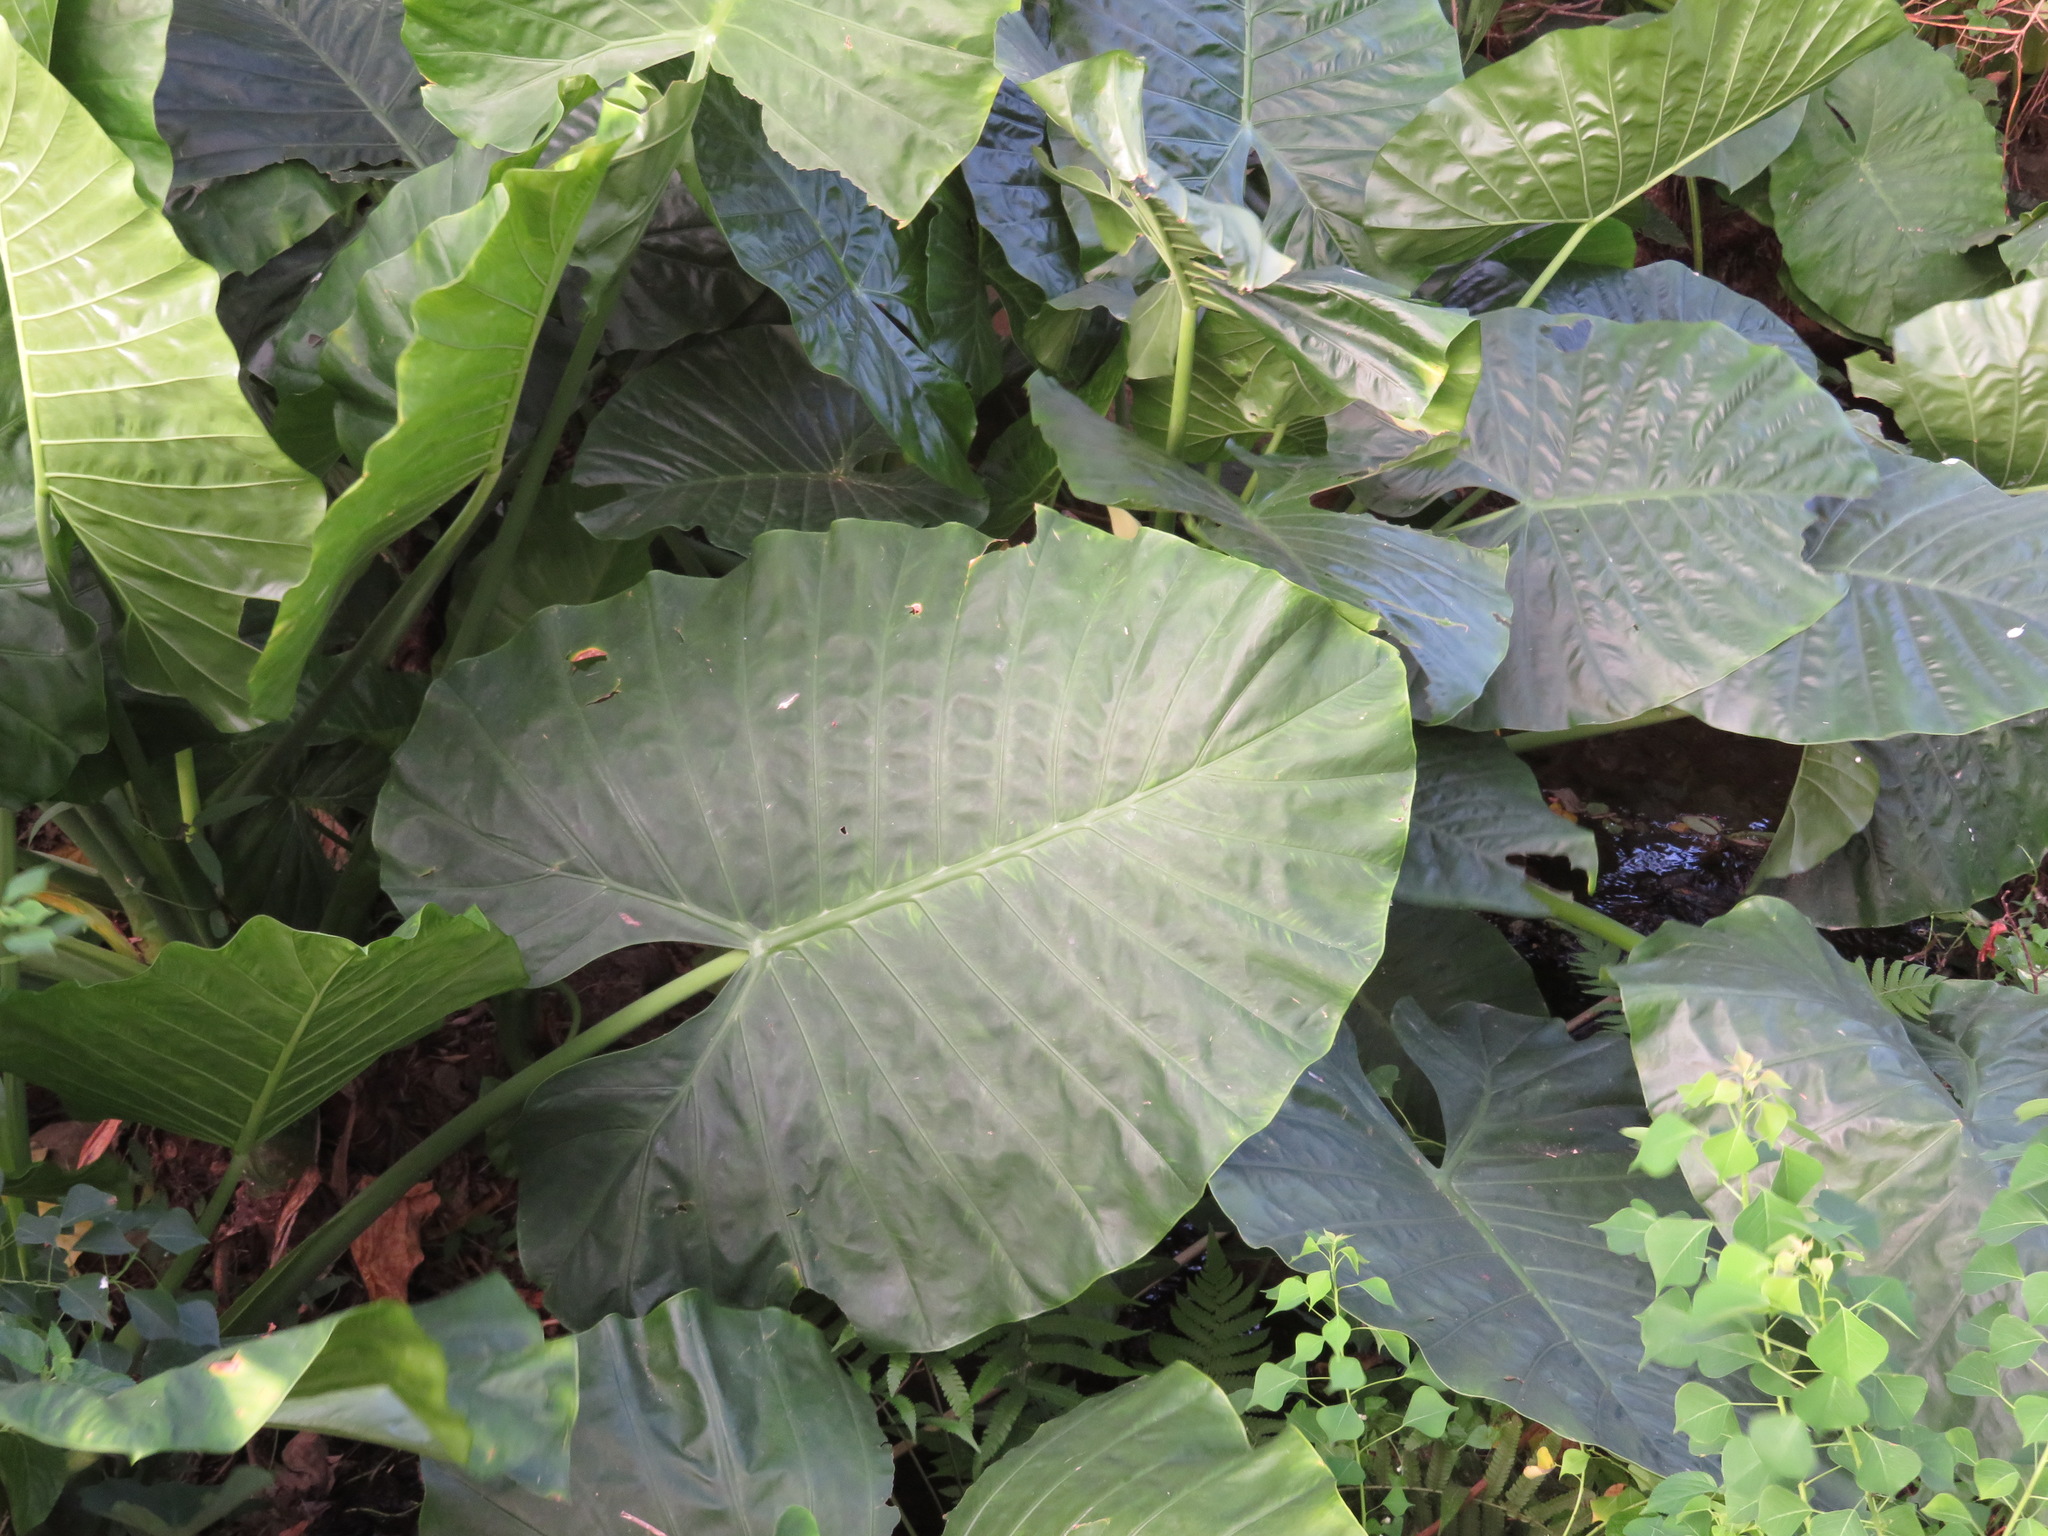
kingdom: Plantae
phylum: Tracheophyta
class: Liliopsida
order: Alismatales
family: Araceae
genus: Alocasia
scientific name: Alocasia macrorrhizos
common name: Giant taro
